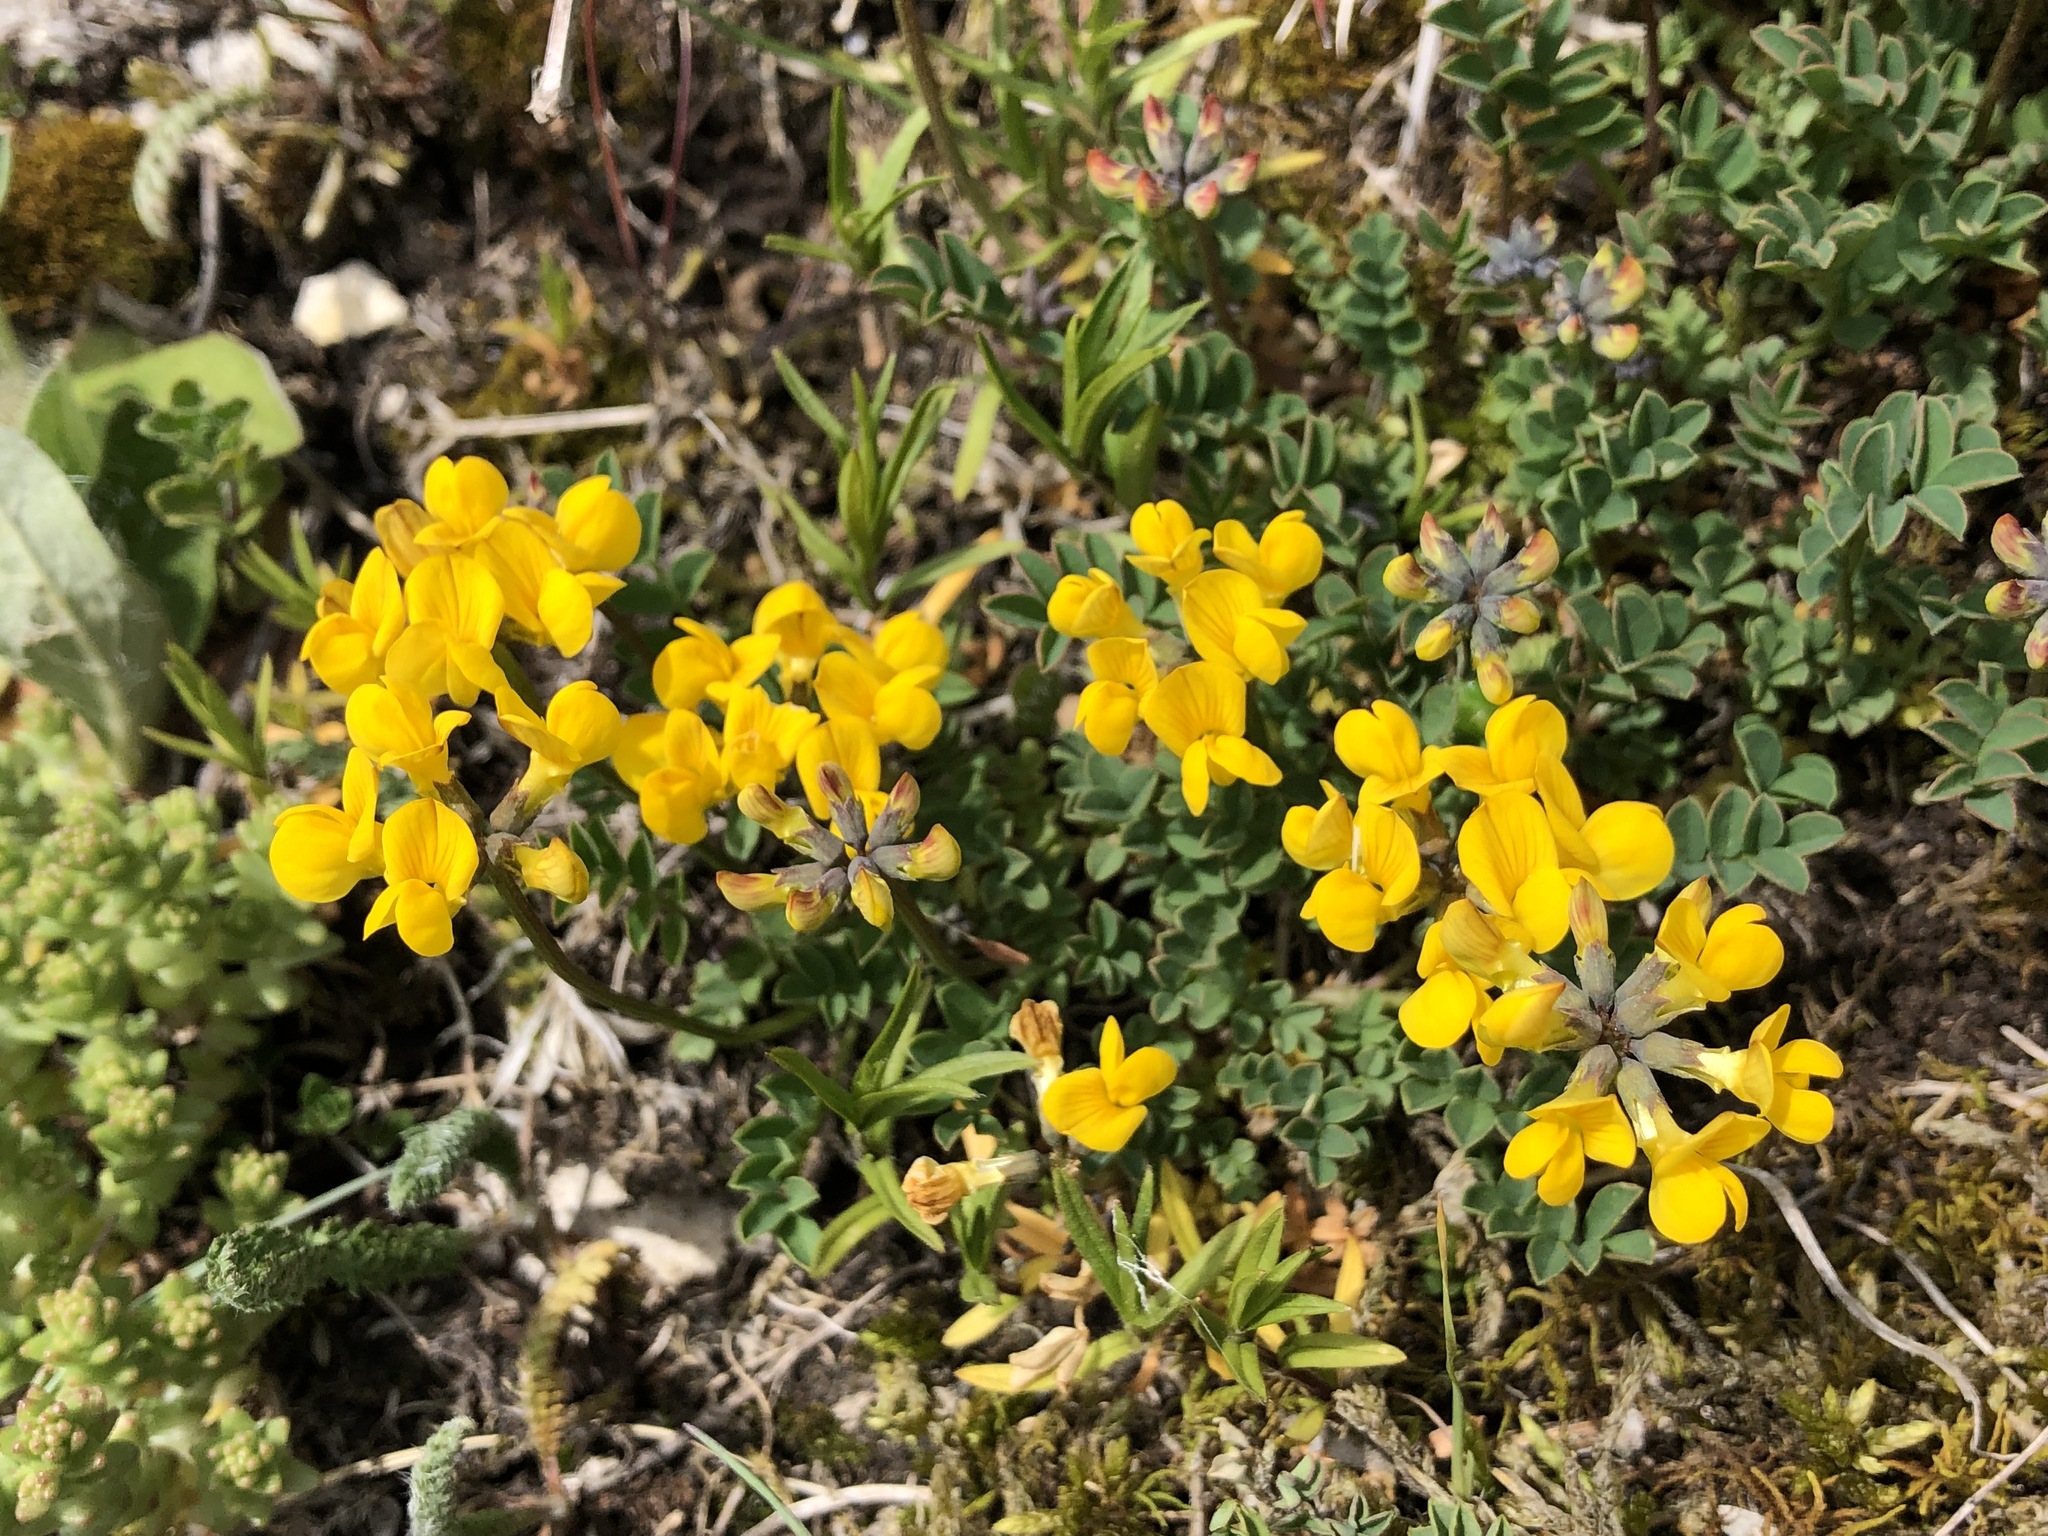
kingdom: Plantae
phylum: Tracheophyta
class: Magnoliopsida
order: Fabales
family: Fabaceae
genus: Hippocrepis
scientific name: Hippocrepis comosa
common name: Horseshoe vetch
